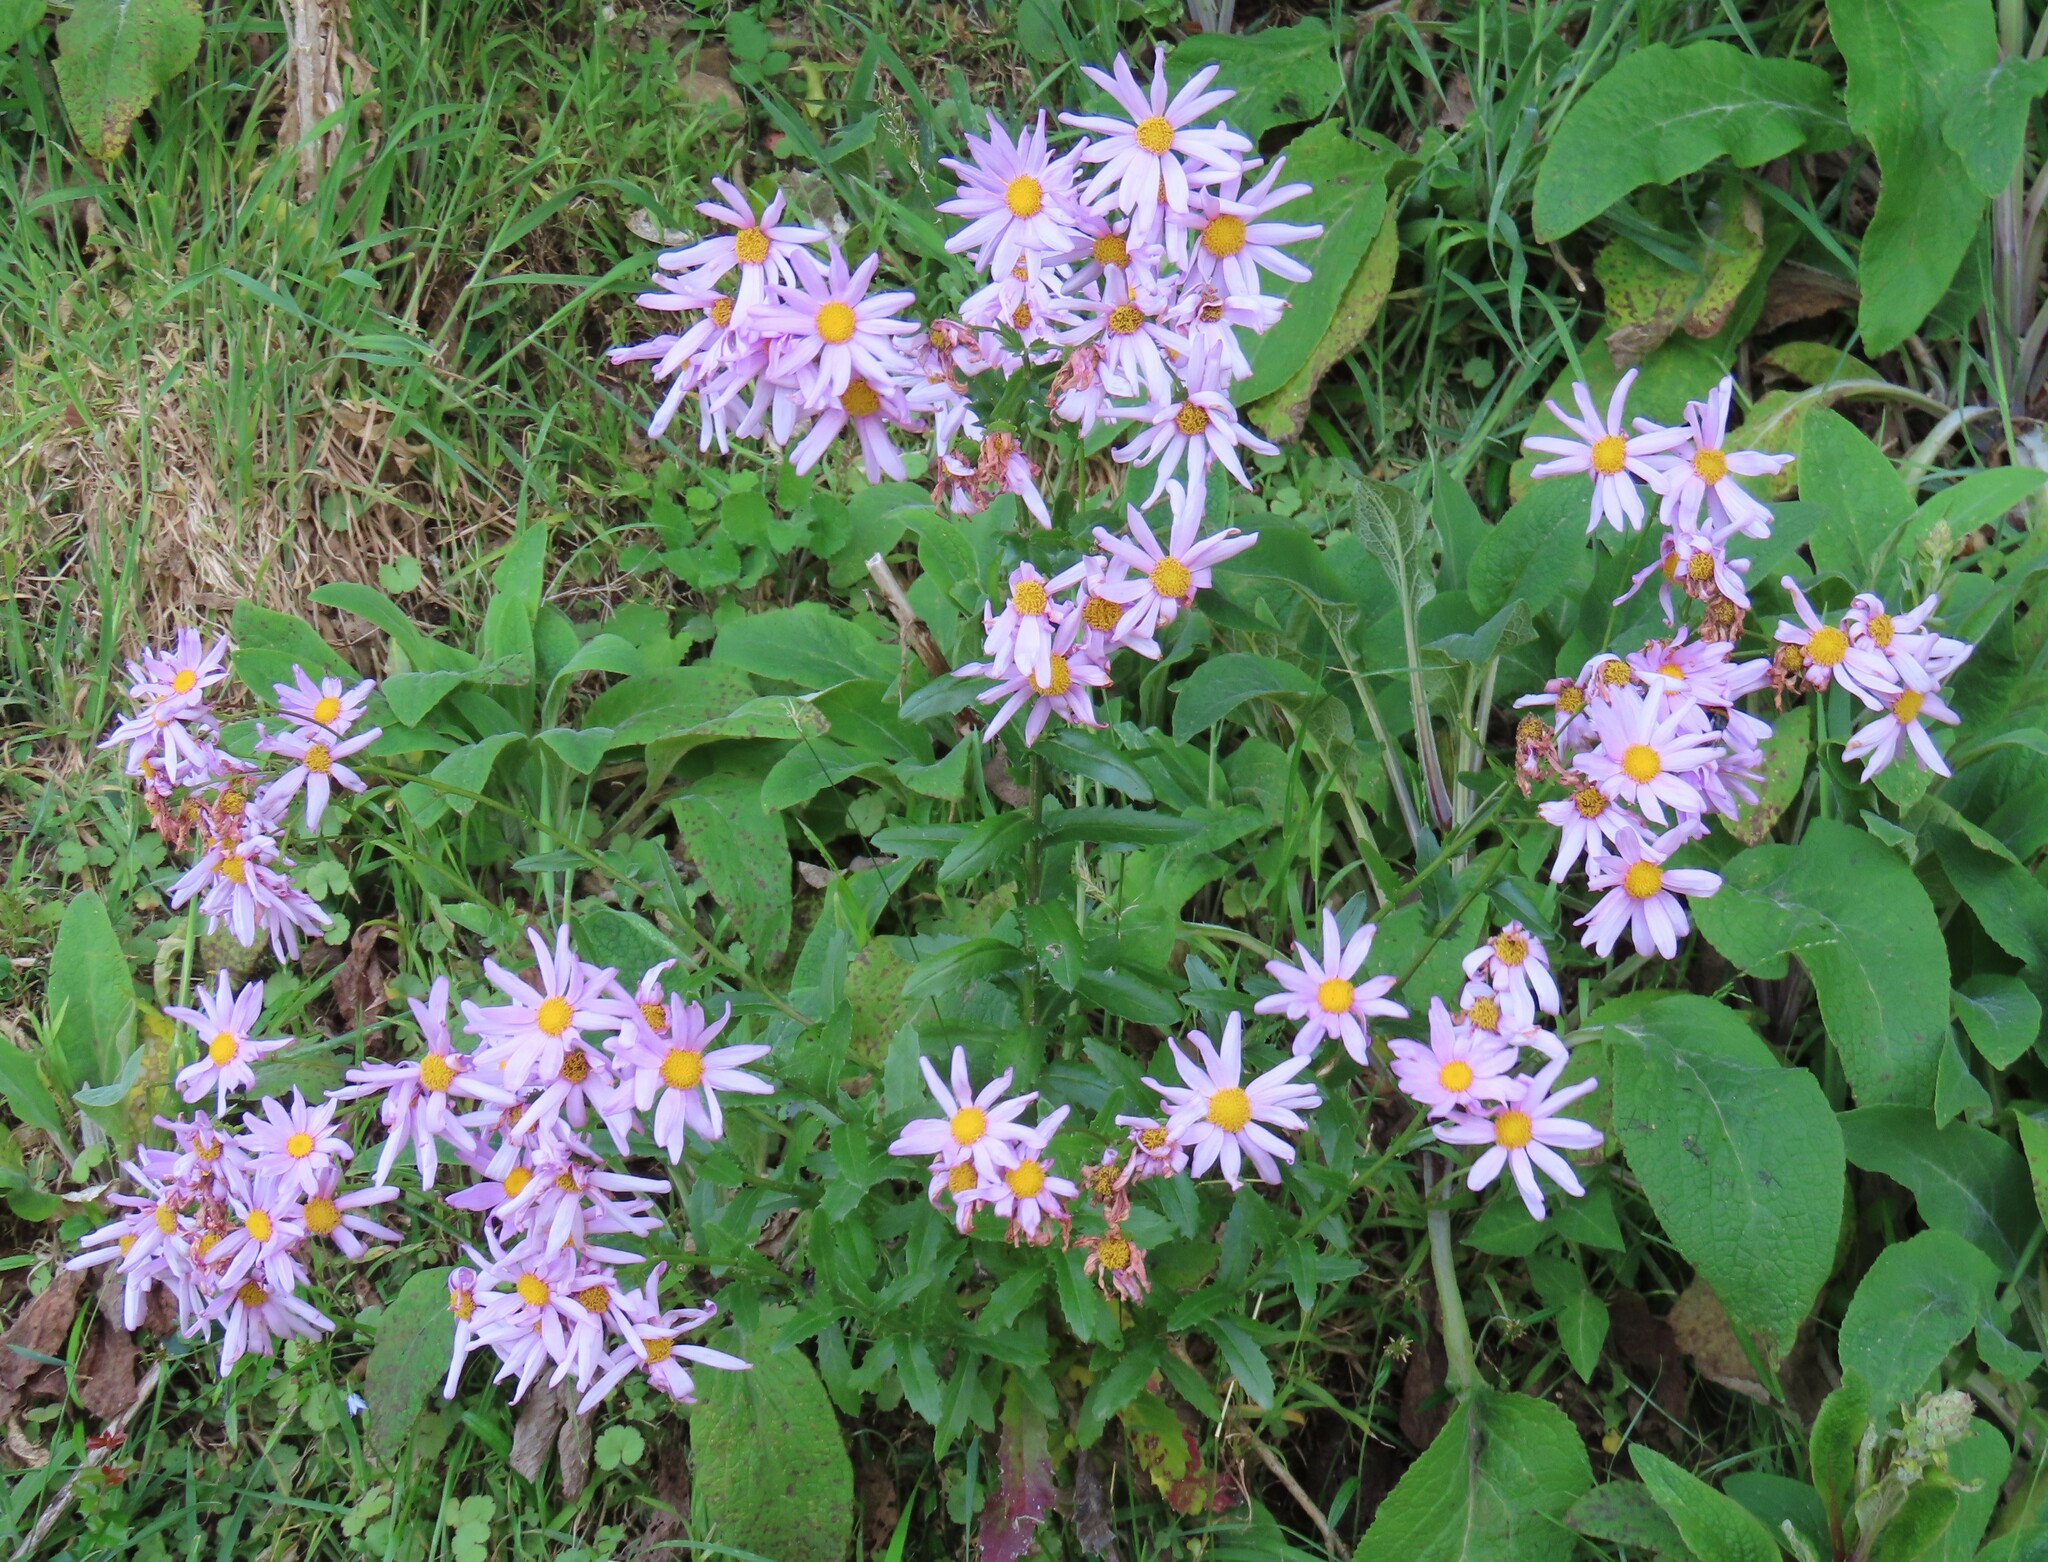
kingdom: Plantae
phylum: Tracheophyta
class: Magnoliopsida
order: Asterales
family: Asteraceae
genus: Senecio
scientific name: Senecio glastifolius
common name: Woad-leaved ragwort
